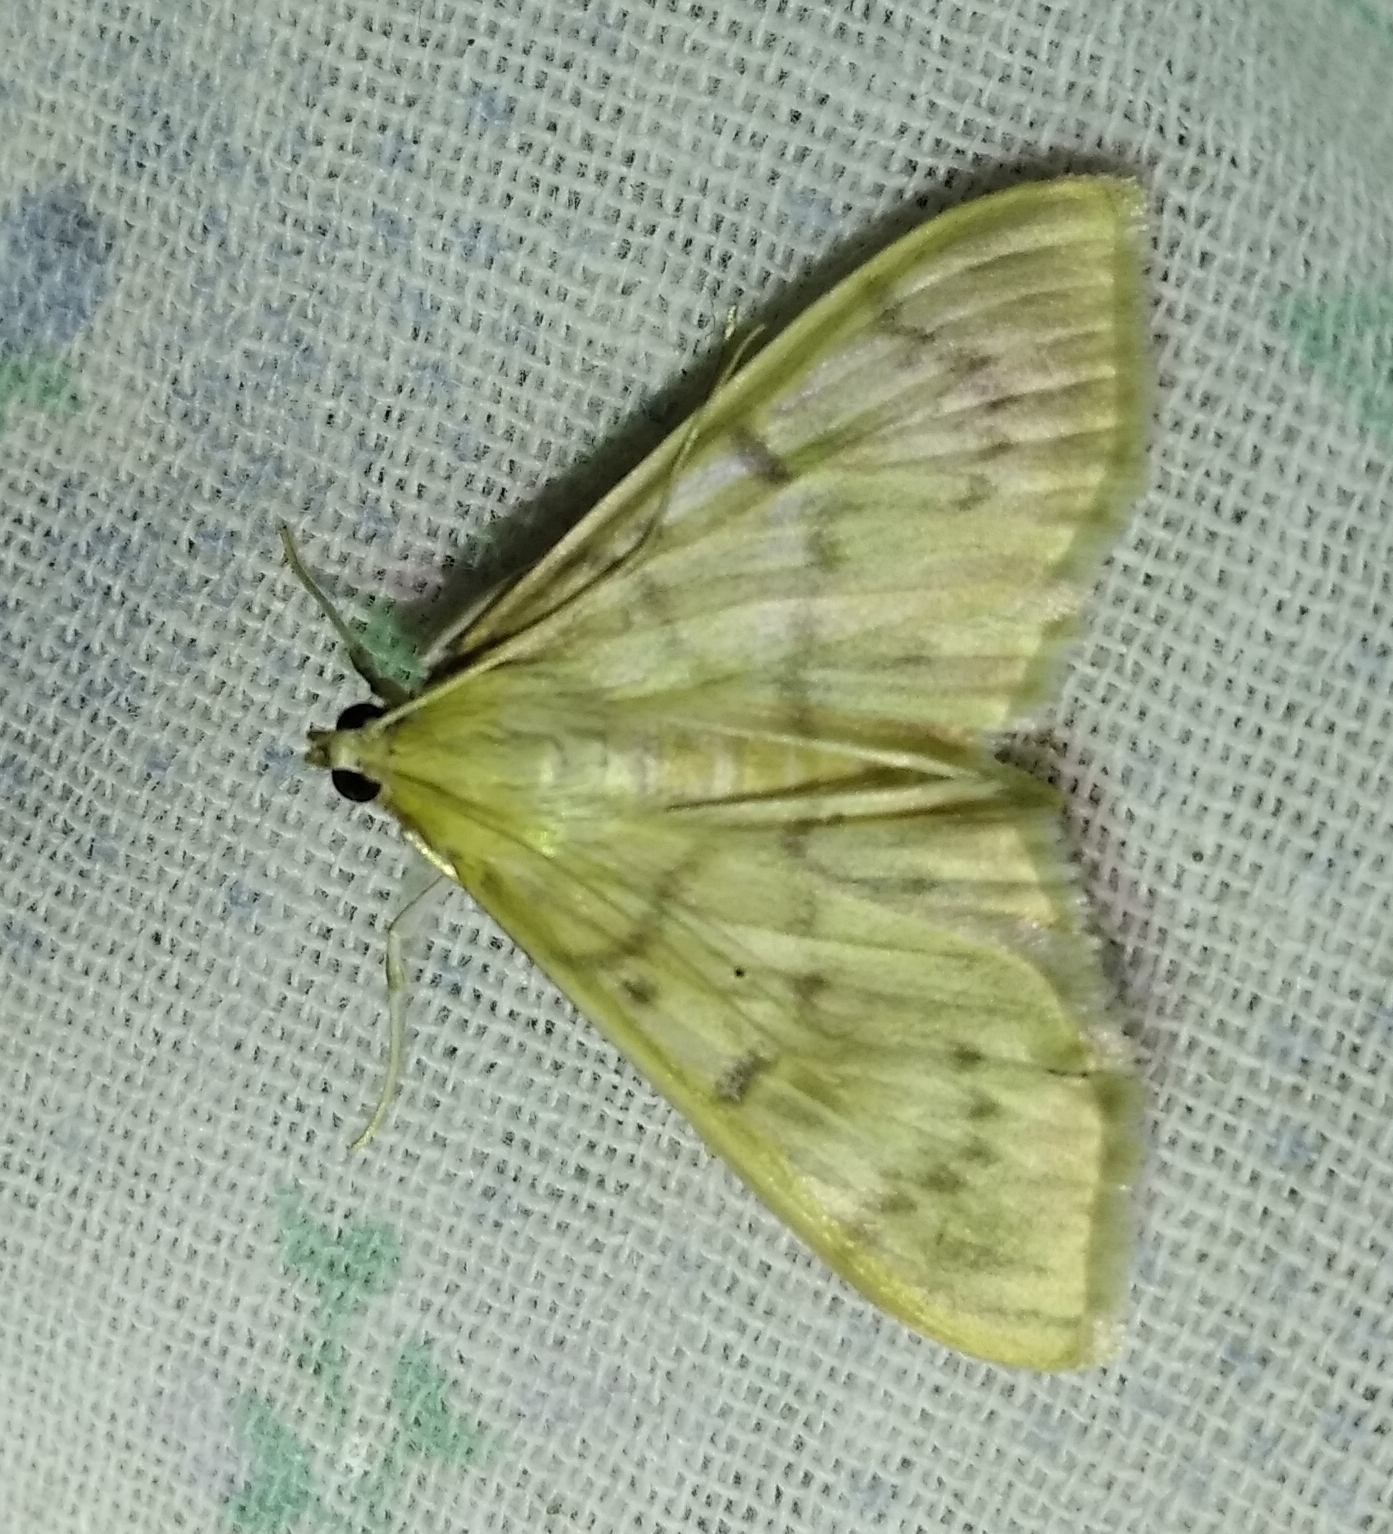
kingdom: Animalia
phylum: Arthropoda
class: Insecta
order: Lepidoptera
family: Crambidae
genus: Patania
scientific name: Patania ruralis
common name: Mother of pearl
